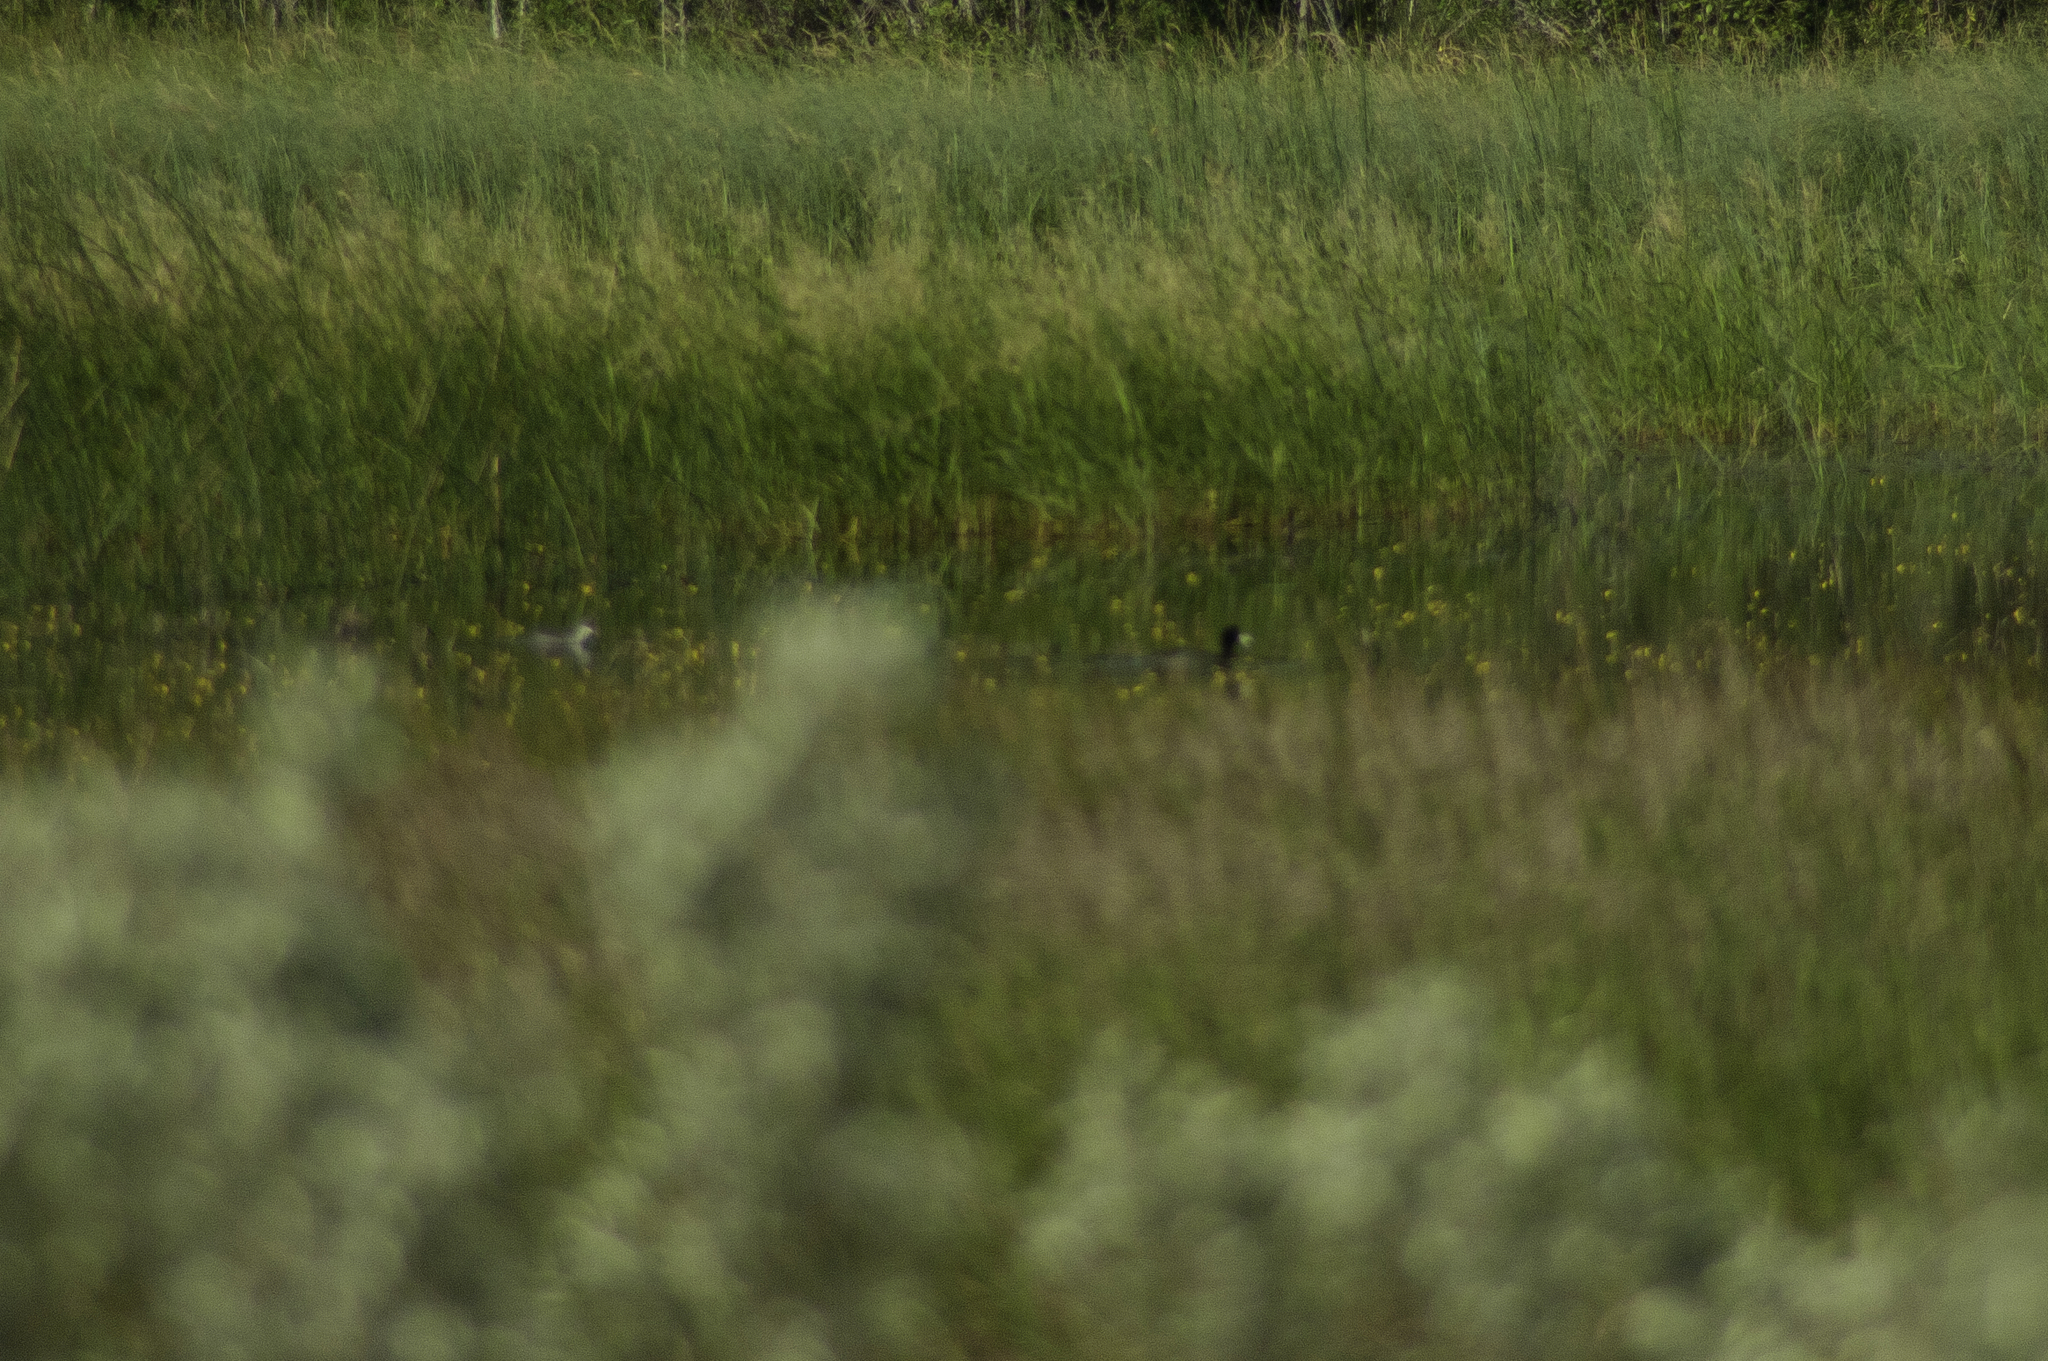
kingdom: Animalia
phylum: Chordata
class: Aves
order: Gruiformes
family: Rallidae
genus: Fulica
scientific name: Fulica americana
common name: American coot
